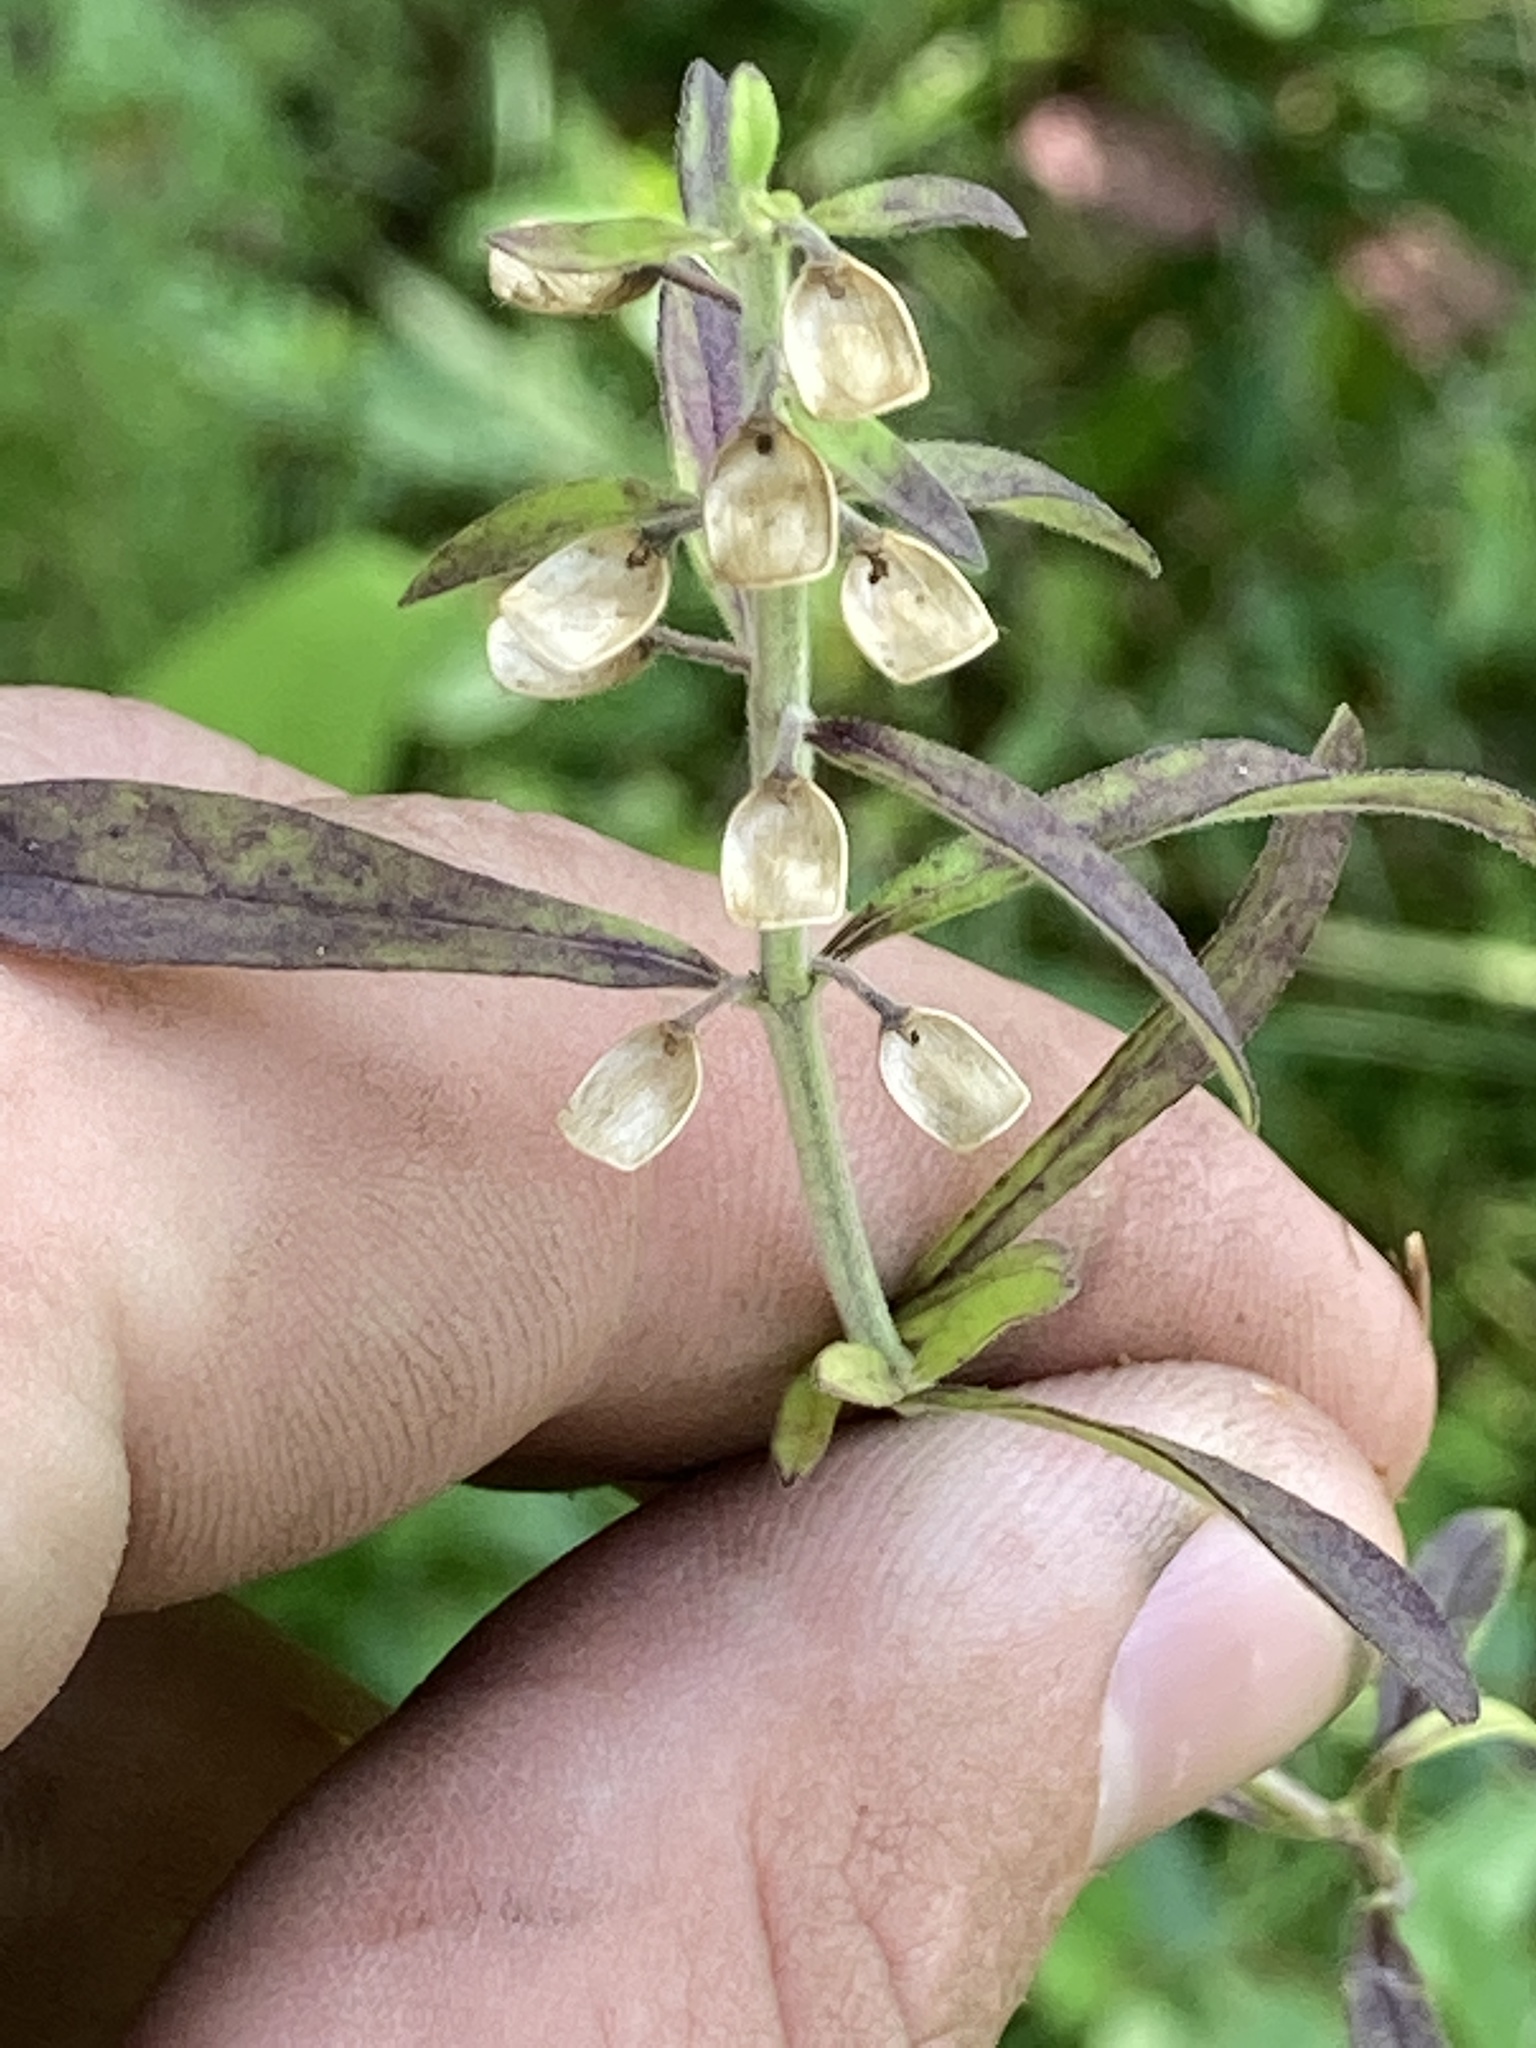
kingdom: Plantae
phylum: Tracheophyta
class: Magnoliopsida
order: Lamiales
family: Lamiaceae
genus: Scutellaria
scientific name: Scutellaria integrifolia
